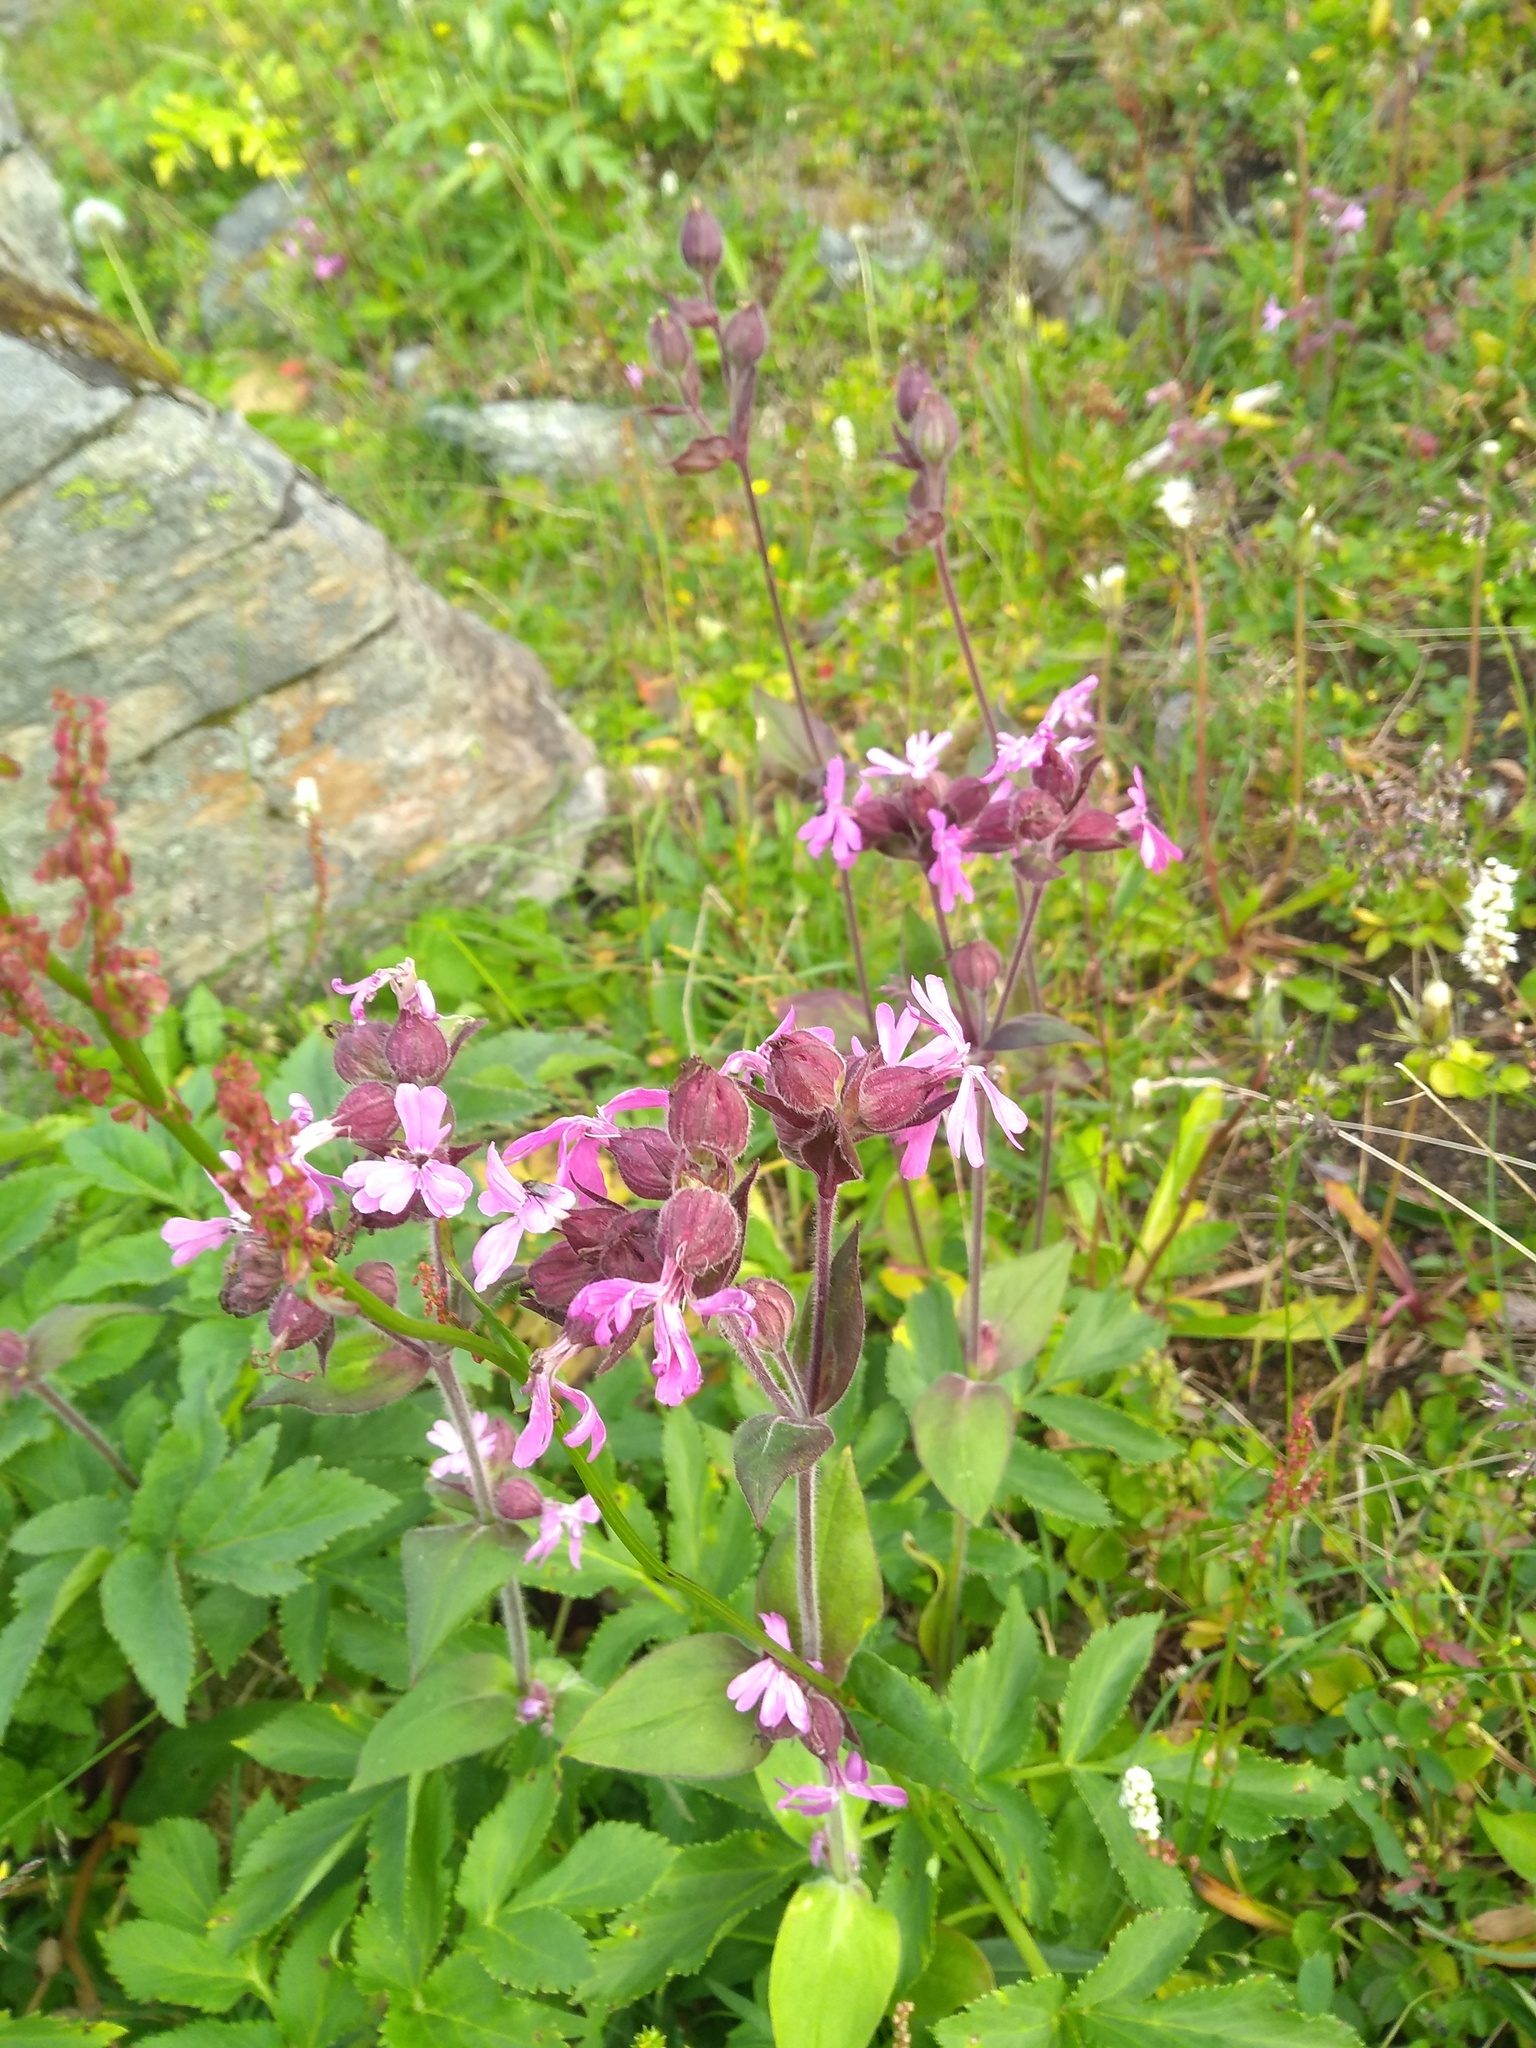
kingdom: Plantae
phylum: Tracheophyta
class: Magnoliopsida
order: Caryophyllales
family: Caryophyllaceae
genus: Silene
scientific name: Silene dioica
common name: Red campion
